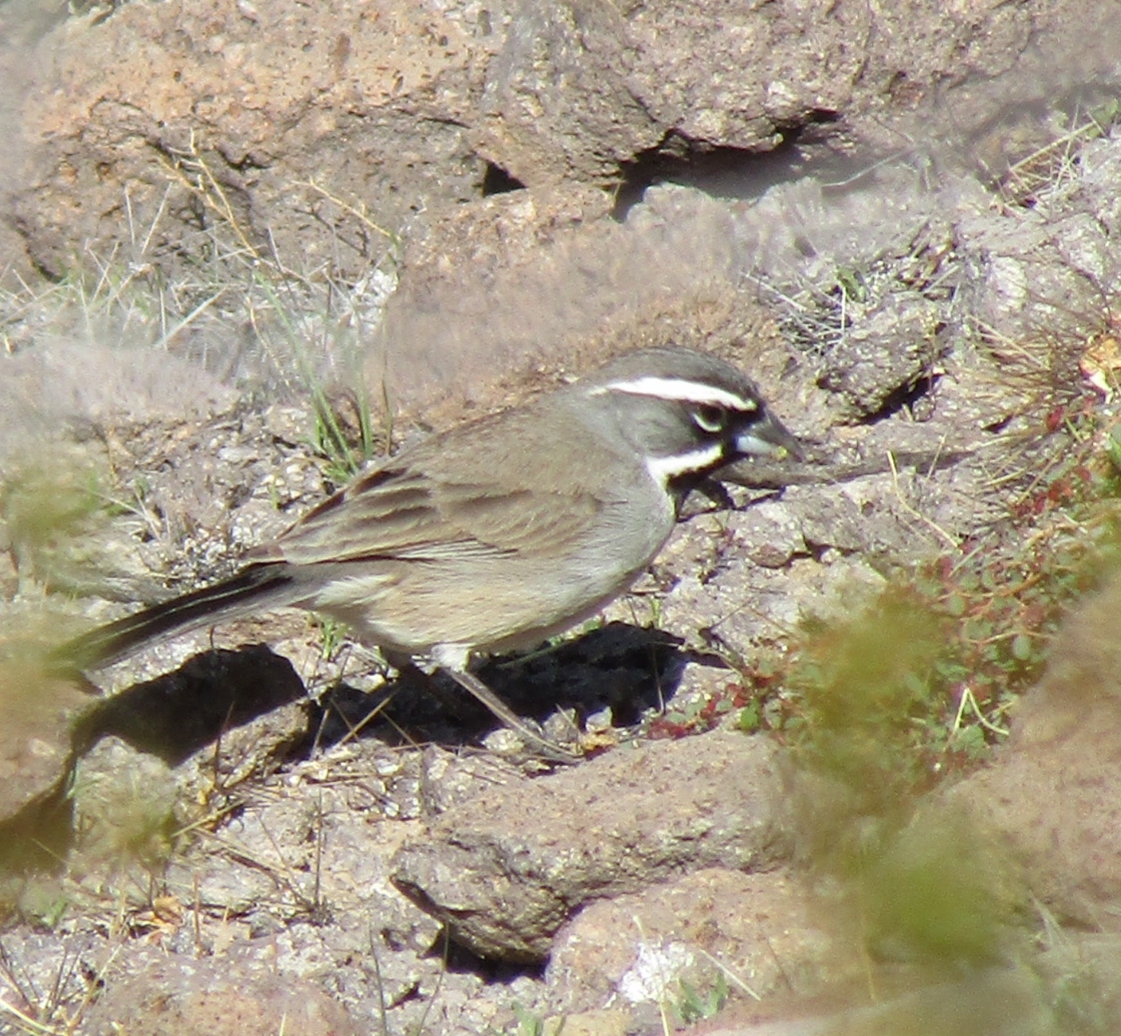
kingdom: Animalia
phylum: Chordata
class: Aves
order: Passeriformes
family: Passerellidae
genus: Amphispiza
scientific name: Amphispiza bilineata
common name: Black-throated sparrow
